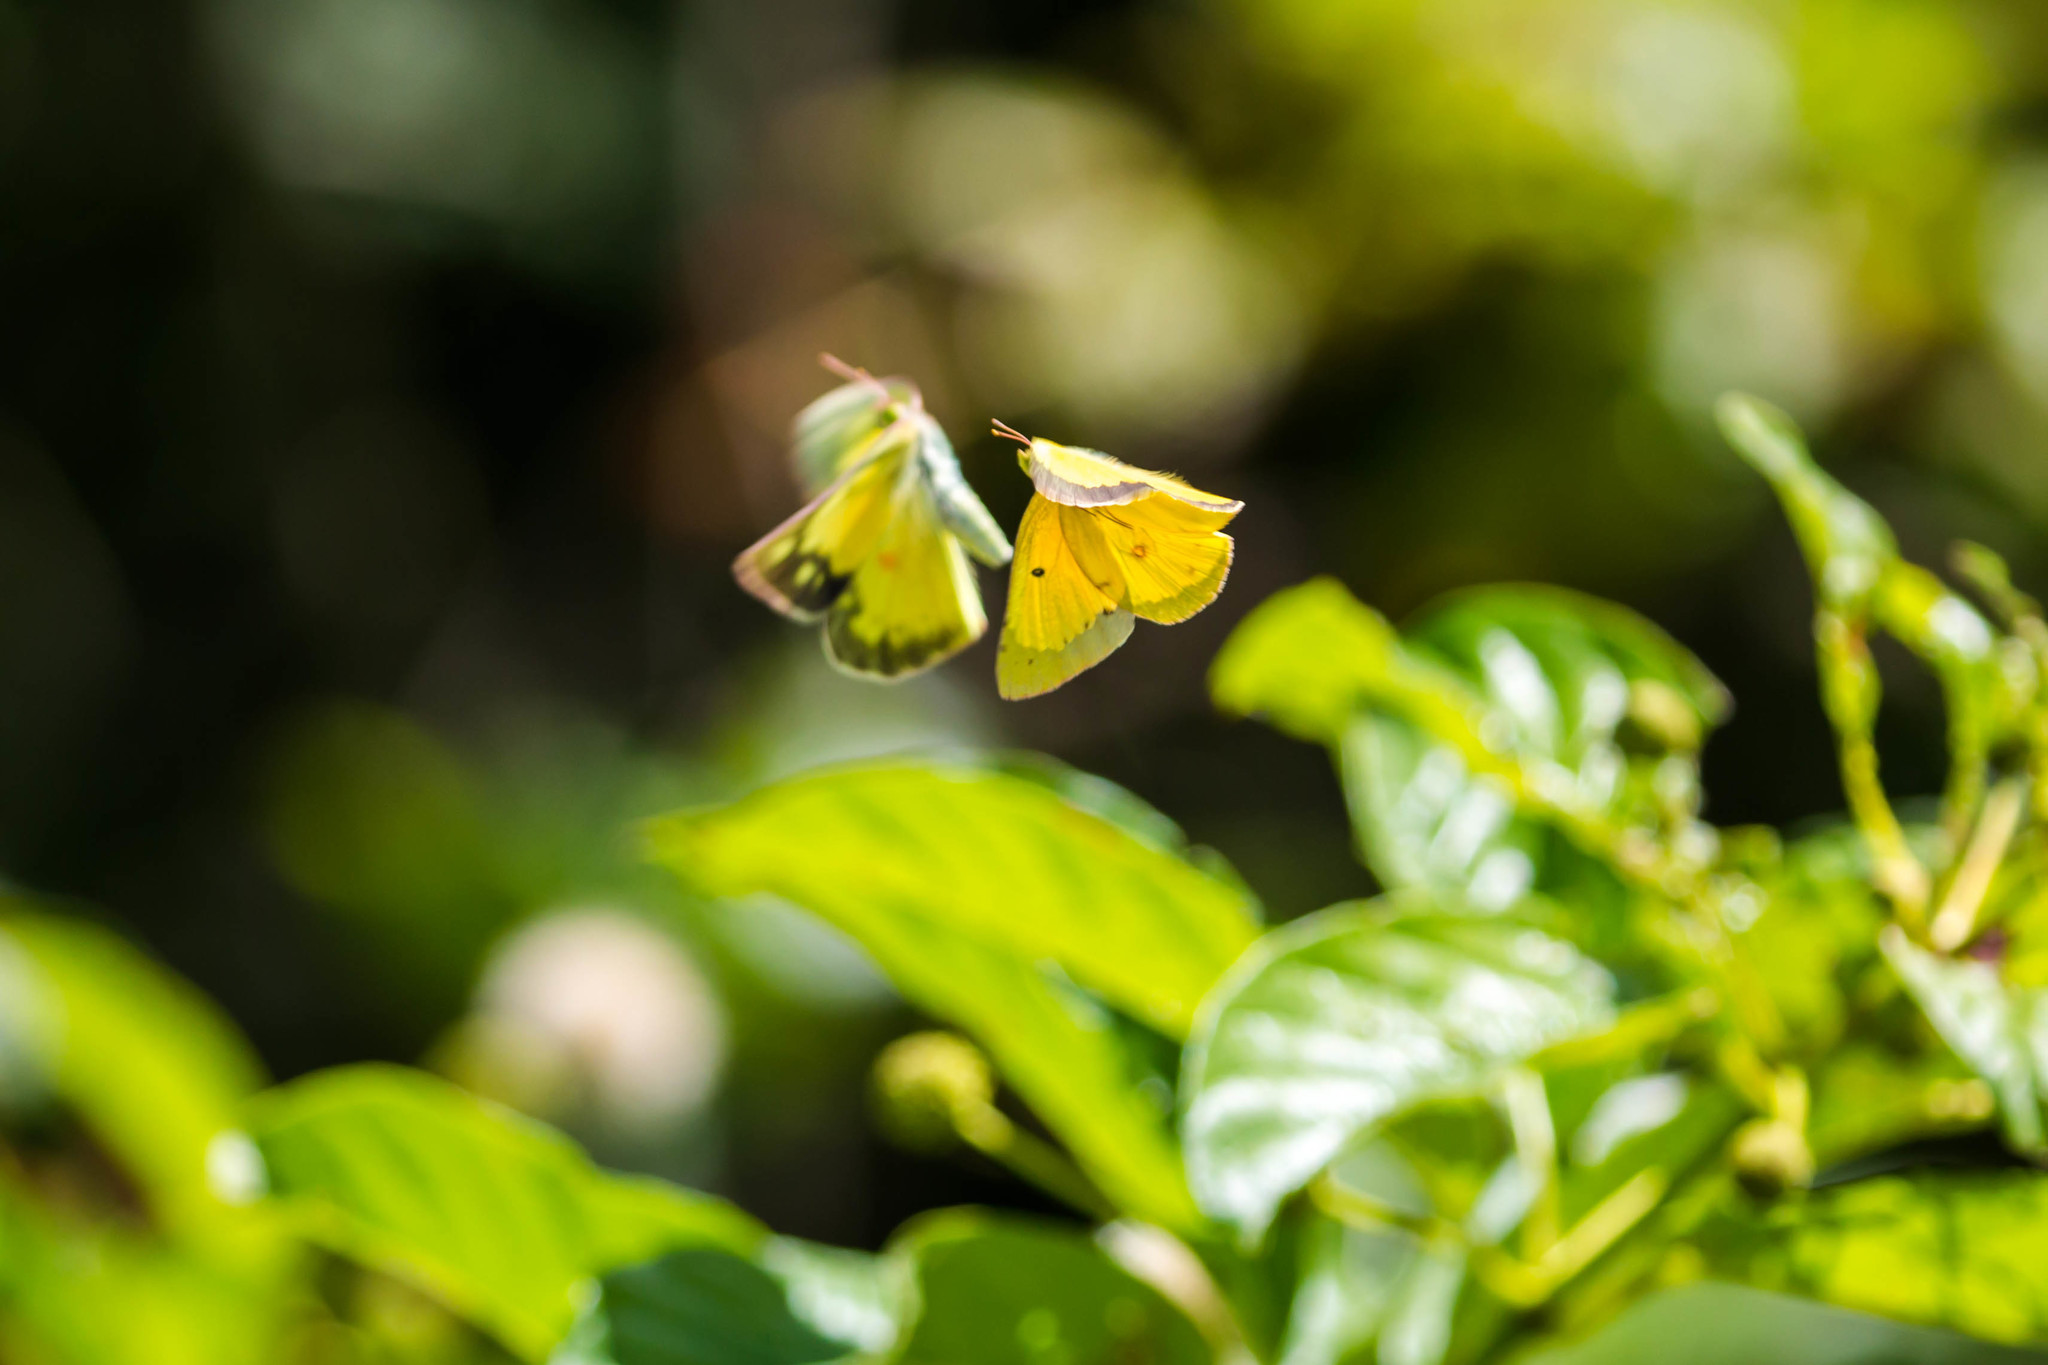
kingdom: Animalia
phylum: Arthropoda
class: Insecta
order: Lepidoptera
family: Pieridae
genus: Colias
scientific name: Colias eurytheme
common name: Alfalfa butterfly
